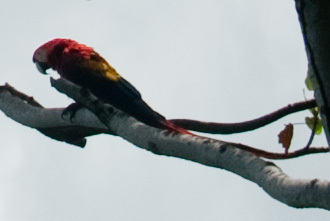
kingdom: Animalia
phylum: Chordata
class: Aves
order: Psittaciformes
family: Psittacidae
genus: Ara
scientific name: Ara macao
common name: Scarlet macaw
